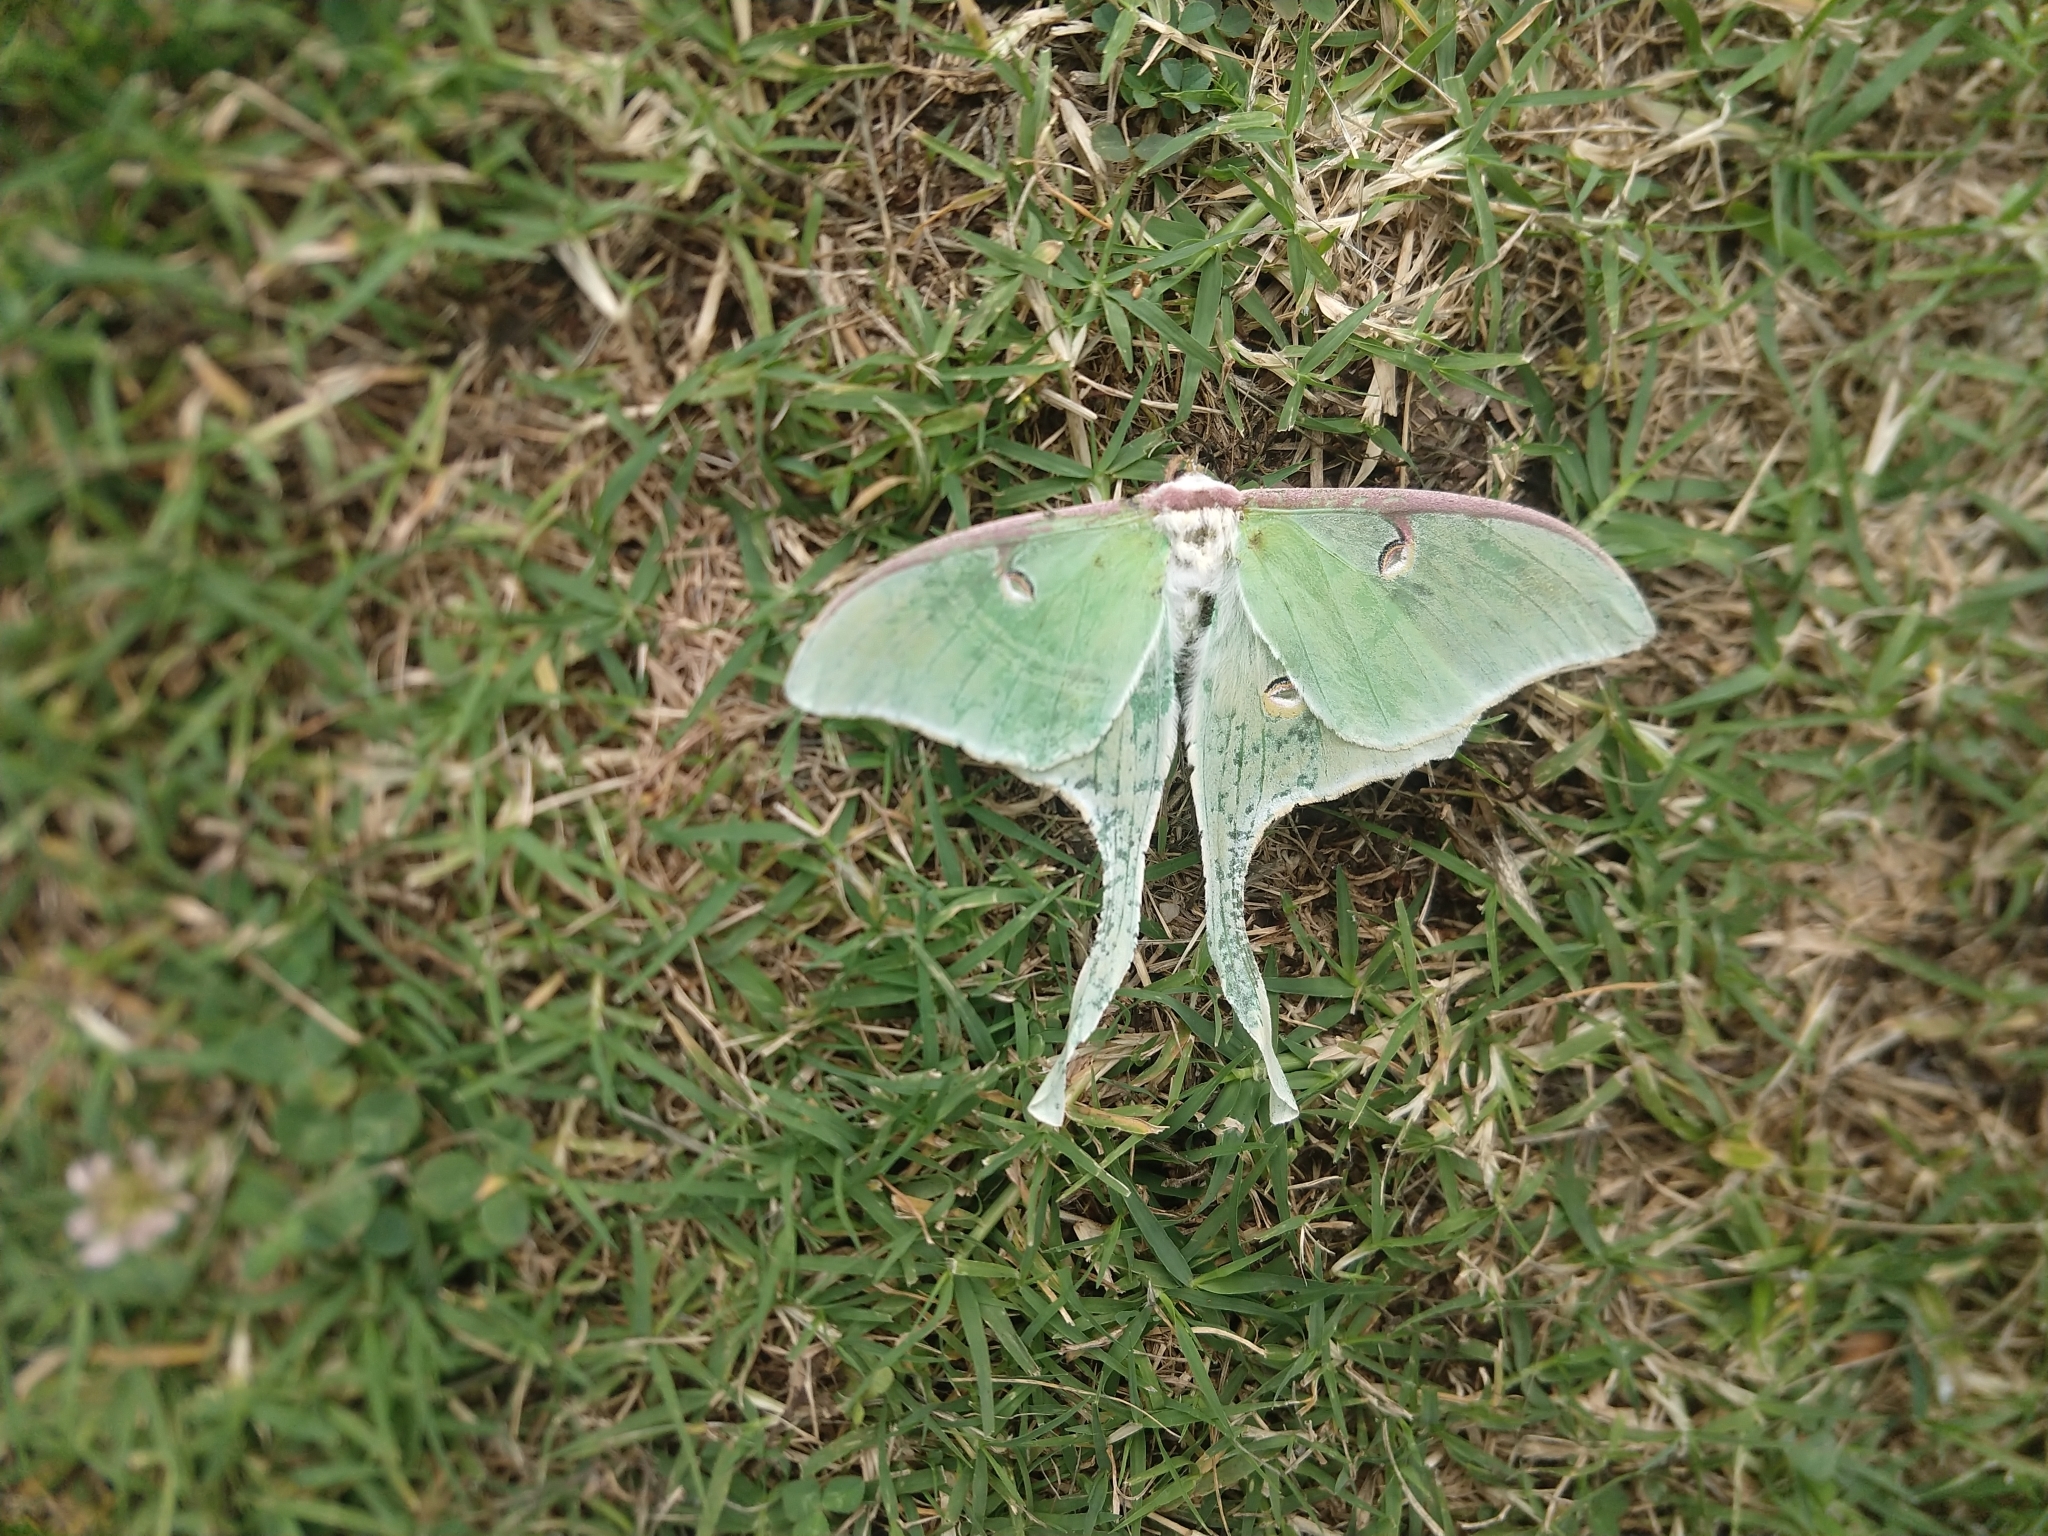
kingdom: Animalia
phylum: Arthropoda
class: Insecta
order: Lepidoptera
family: Saturniidae
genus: Actias
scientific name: Actias luna
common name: Luna moth
